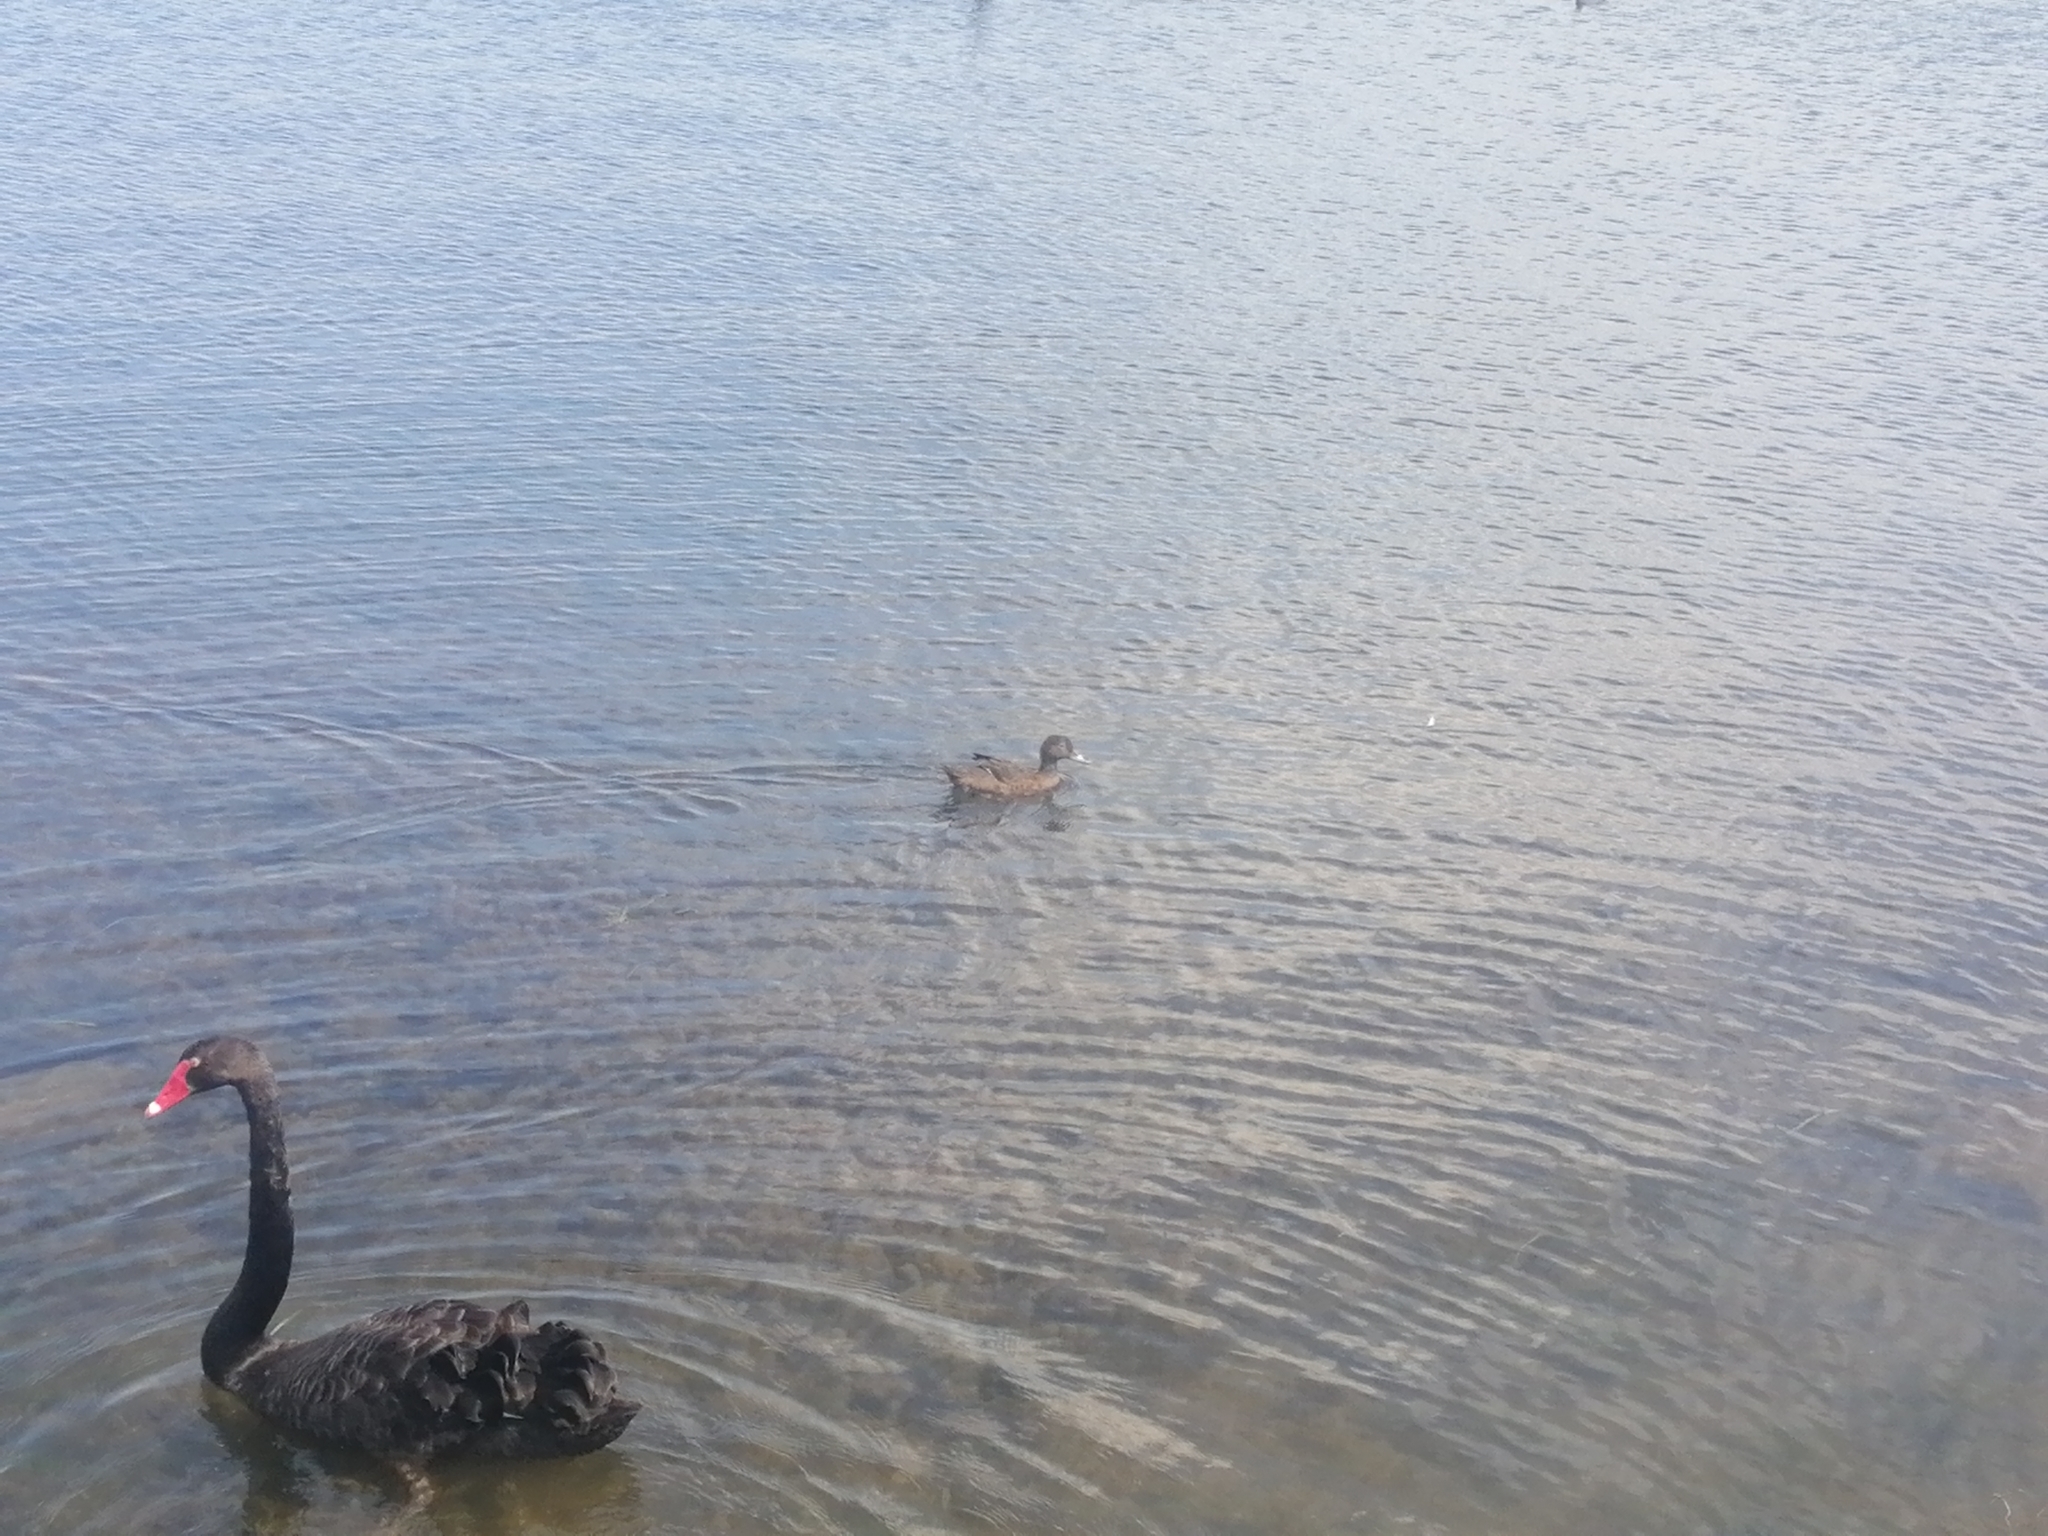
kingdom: Animalia
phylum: Chordata
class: Aves
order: Anseriformes
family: Anatidae
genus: Anas
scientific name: Anas chlorotis
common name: Brown teal
